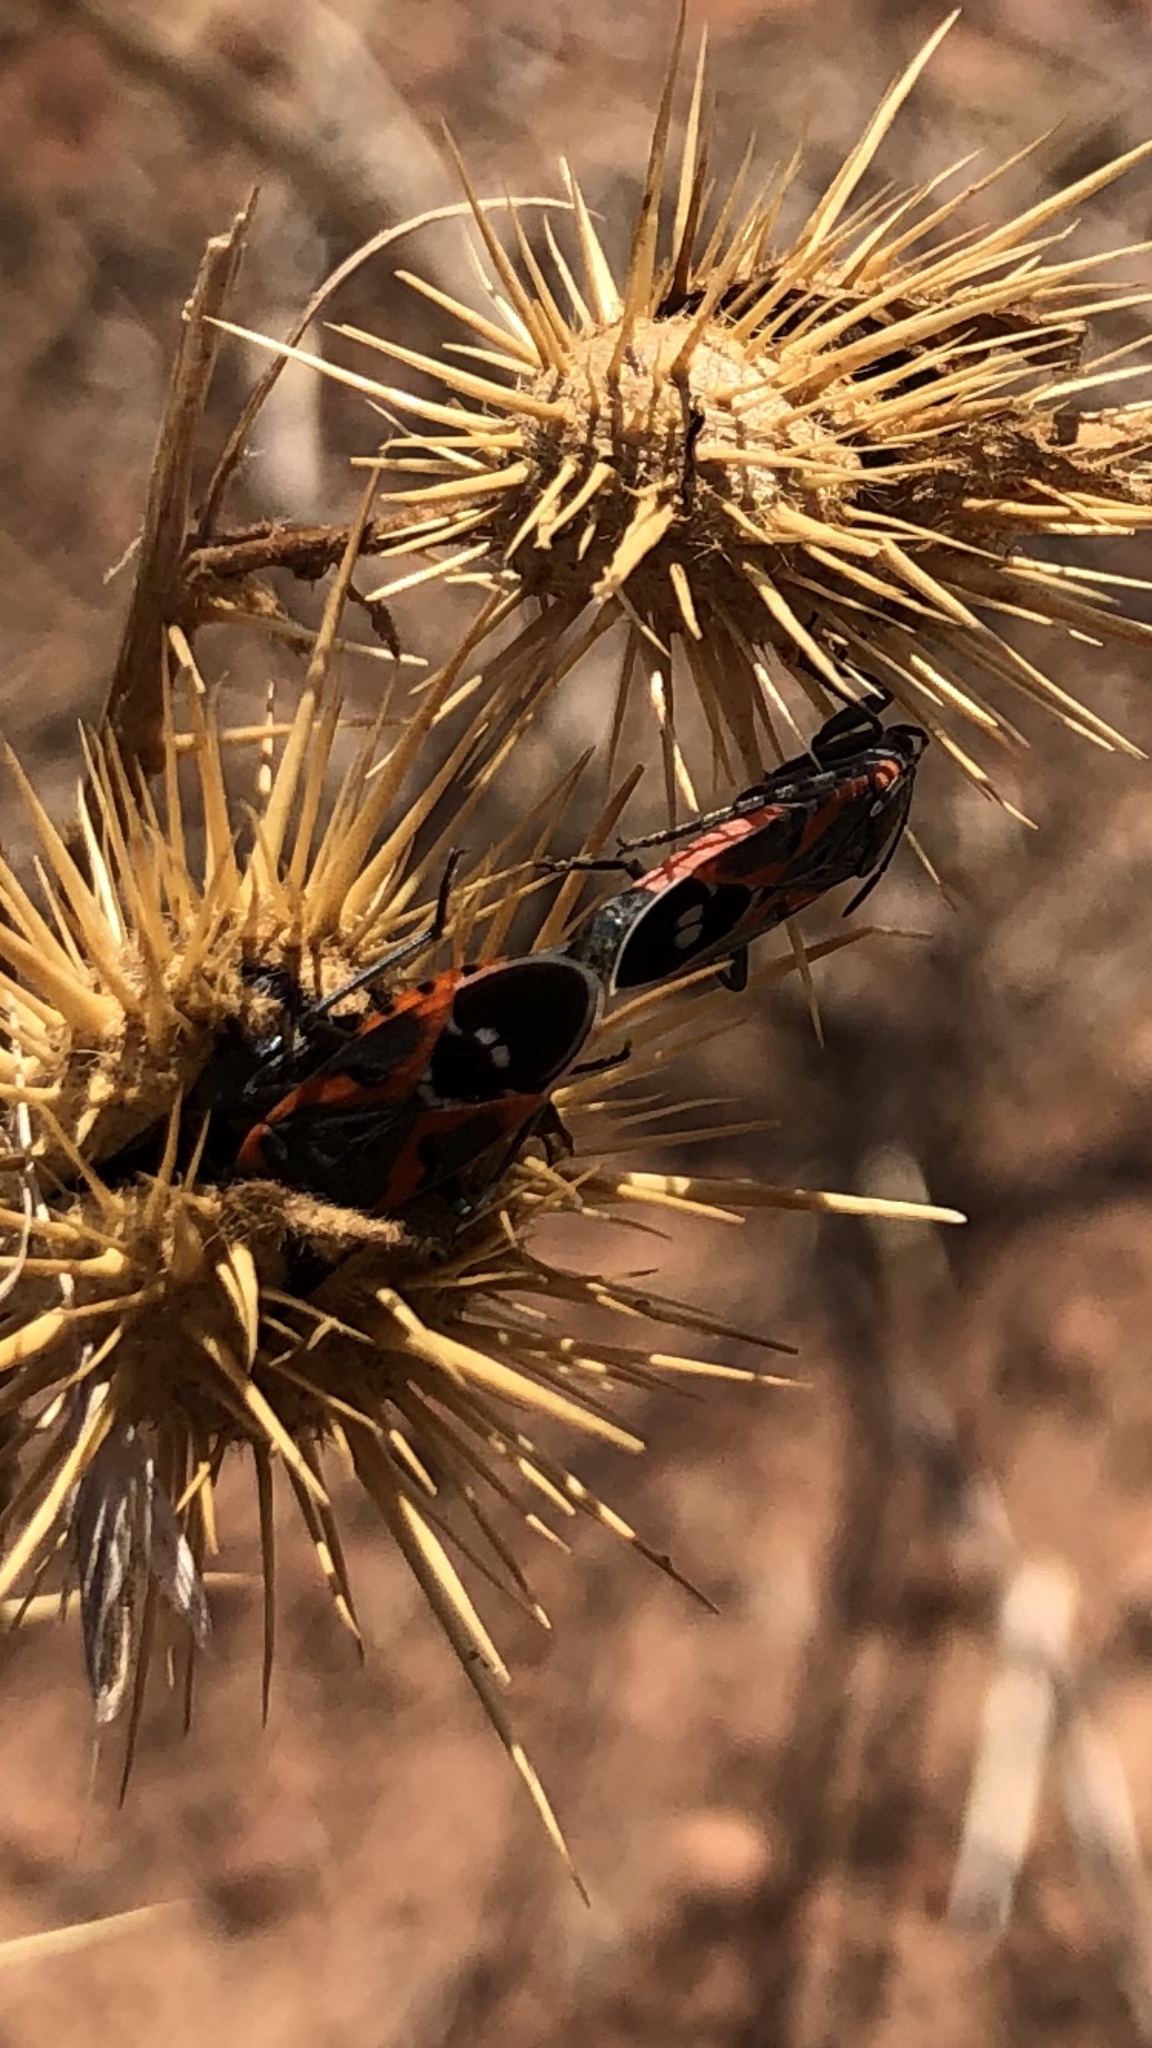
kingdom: Animalia
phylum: Arthropoda
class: Insecta
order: Hemiptera
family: Lygaeidae
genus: Lygaeus
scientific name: Lygaeus kalmii
